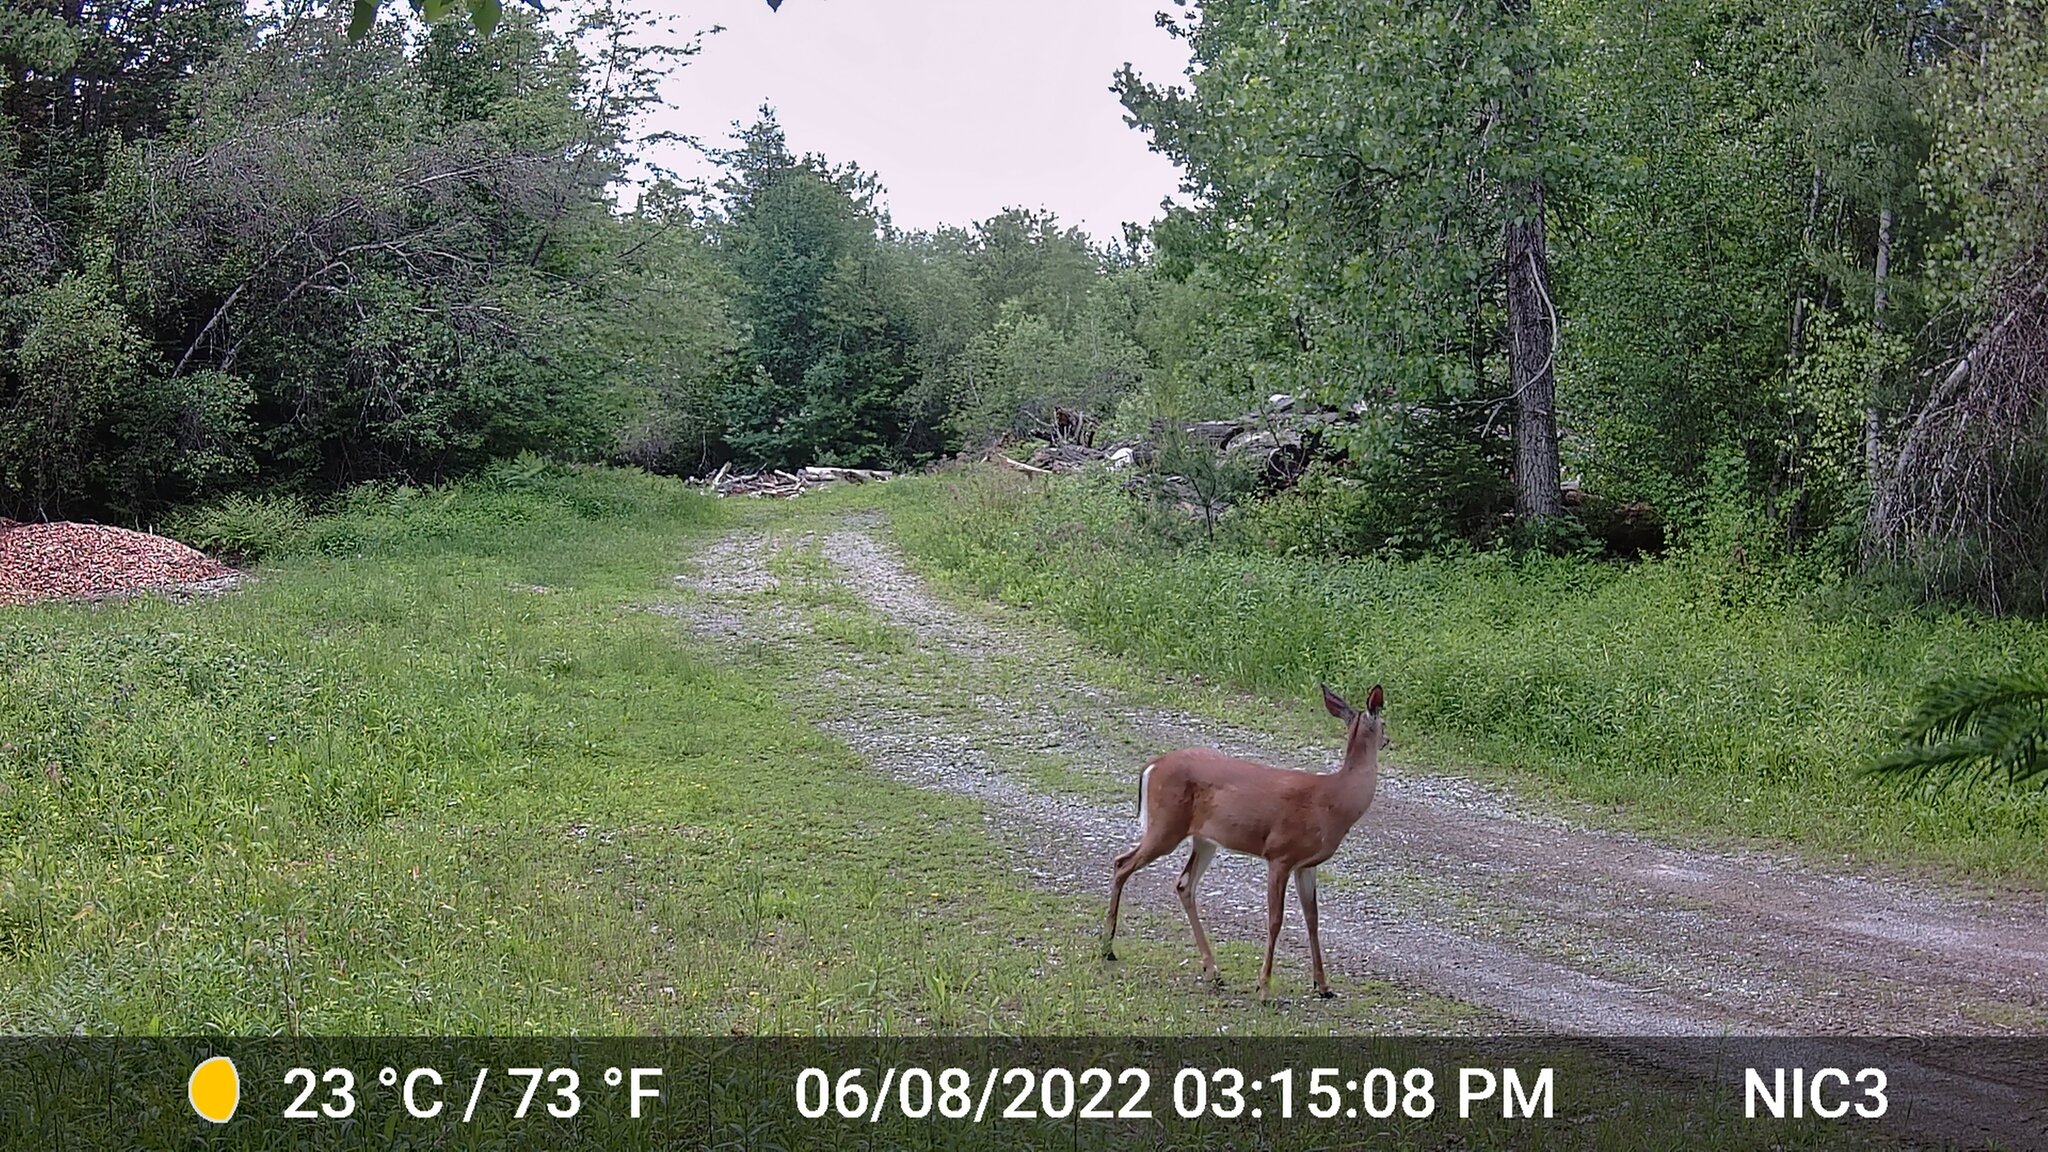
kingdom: Animalia
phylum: Chordata
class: Mammalia
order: Artiodactyla
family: Cervidae
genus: Odocoileus
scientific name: Odocoileus virginianus
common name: White-tailed deer
